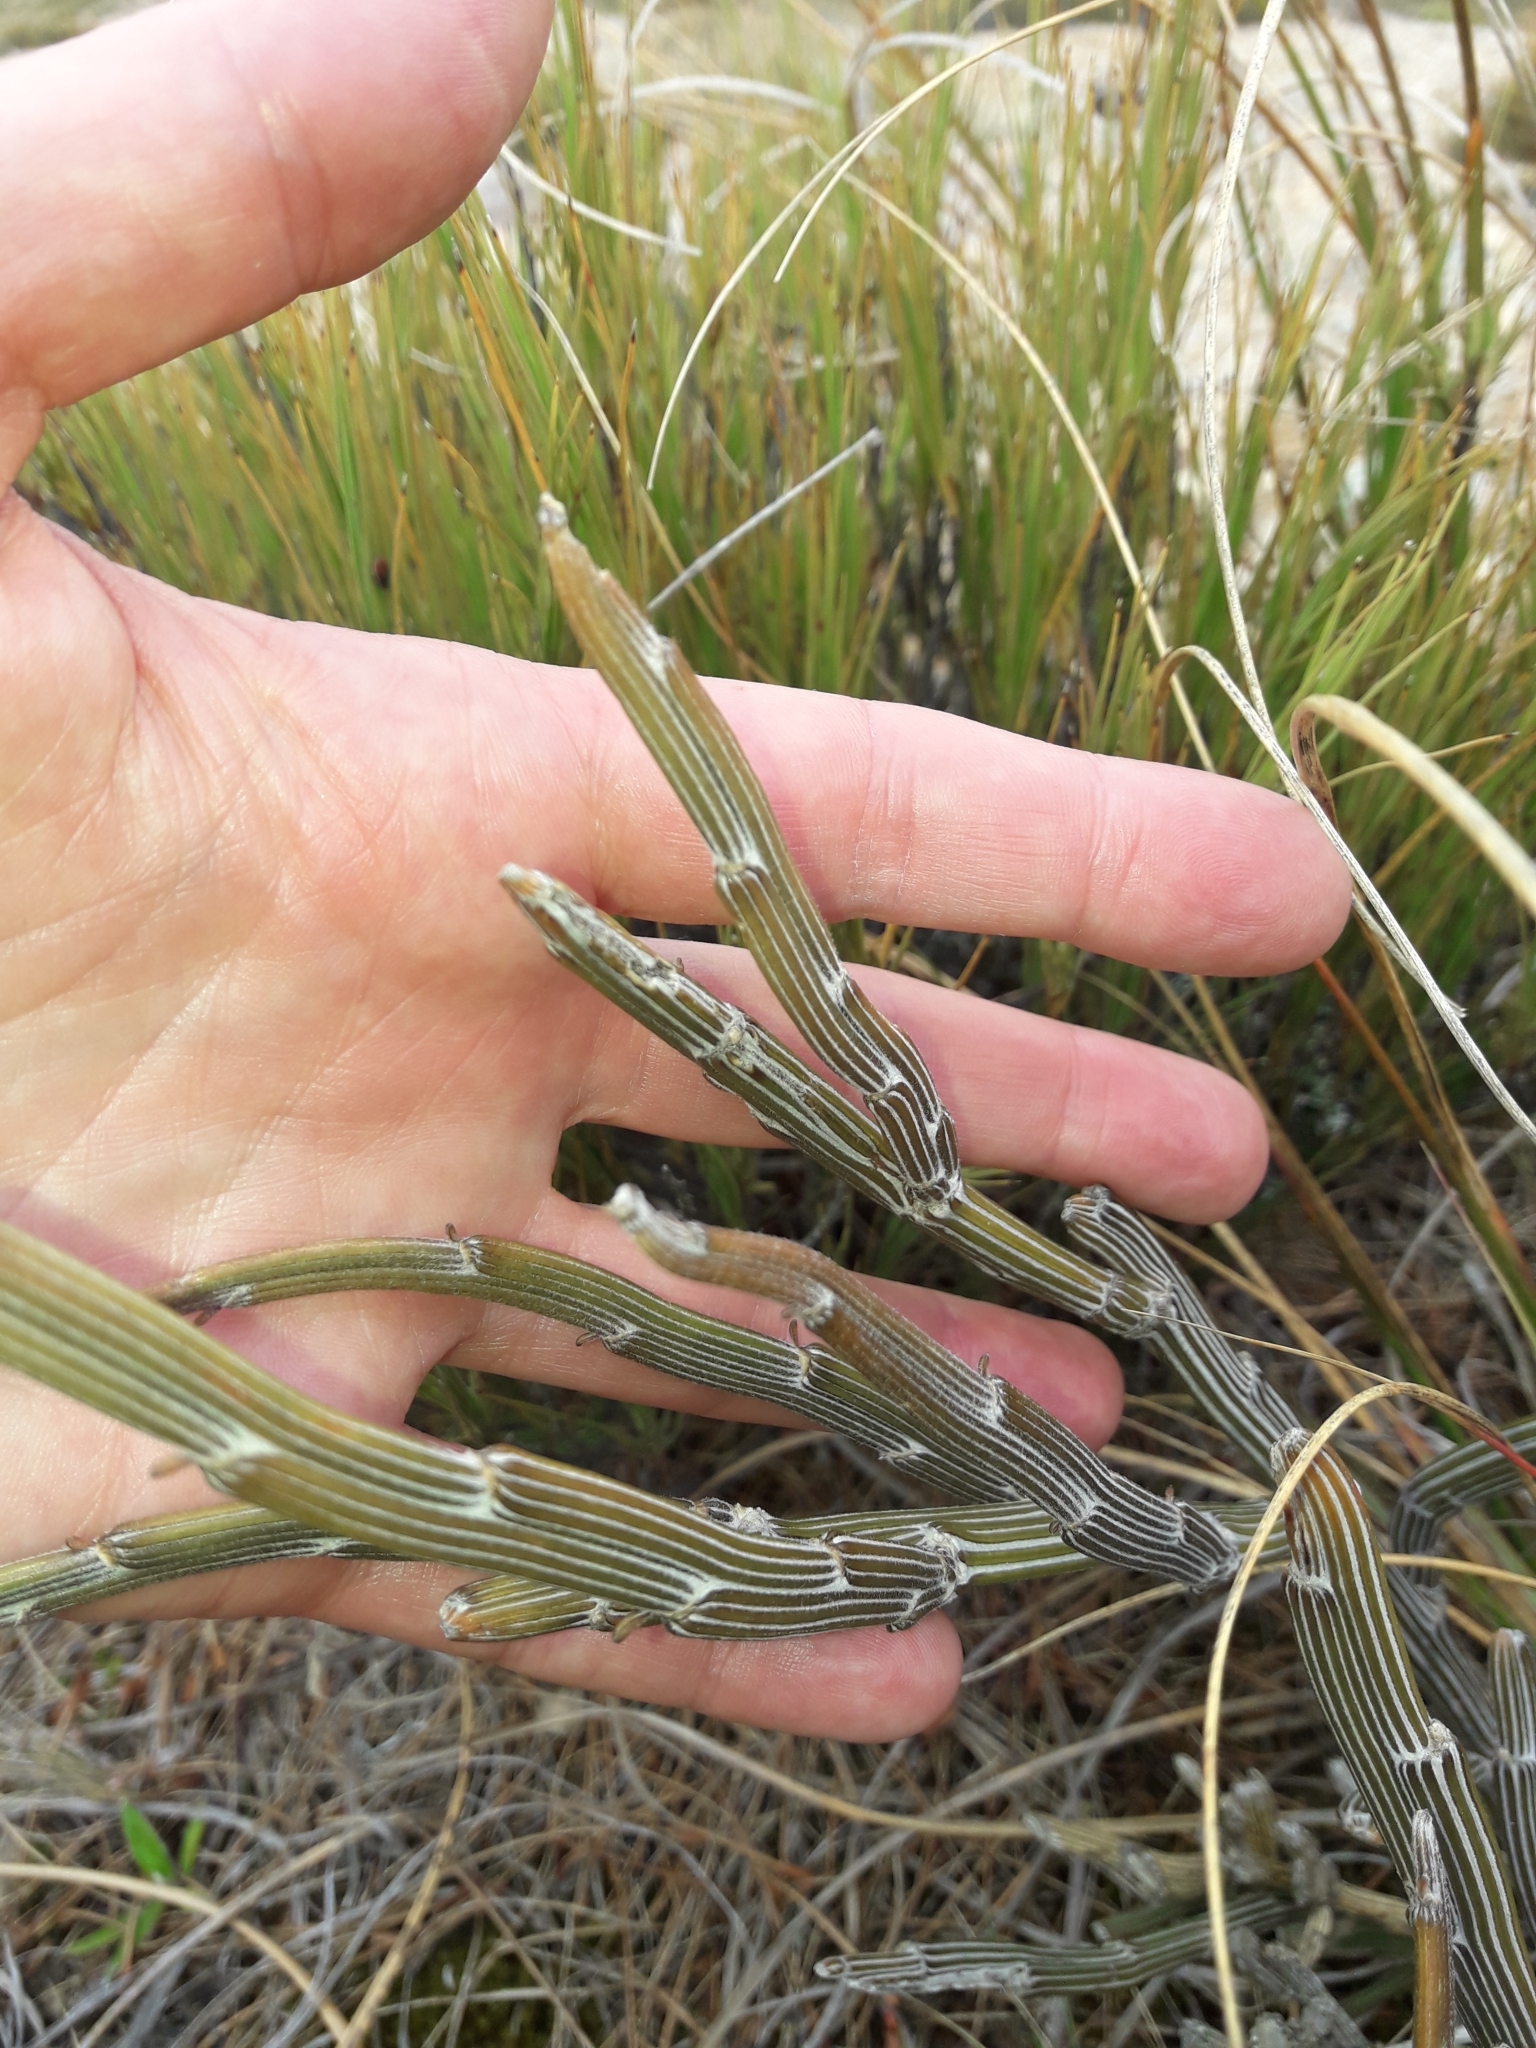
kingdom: Plantae
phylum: Tracheophyta
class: Magnoliopsida
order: Fabales
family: Fabaceae
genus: Carmichaelia
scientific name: Carmichaelia crassicaulis
